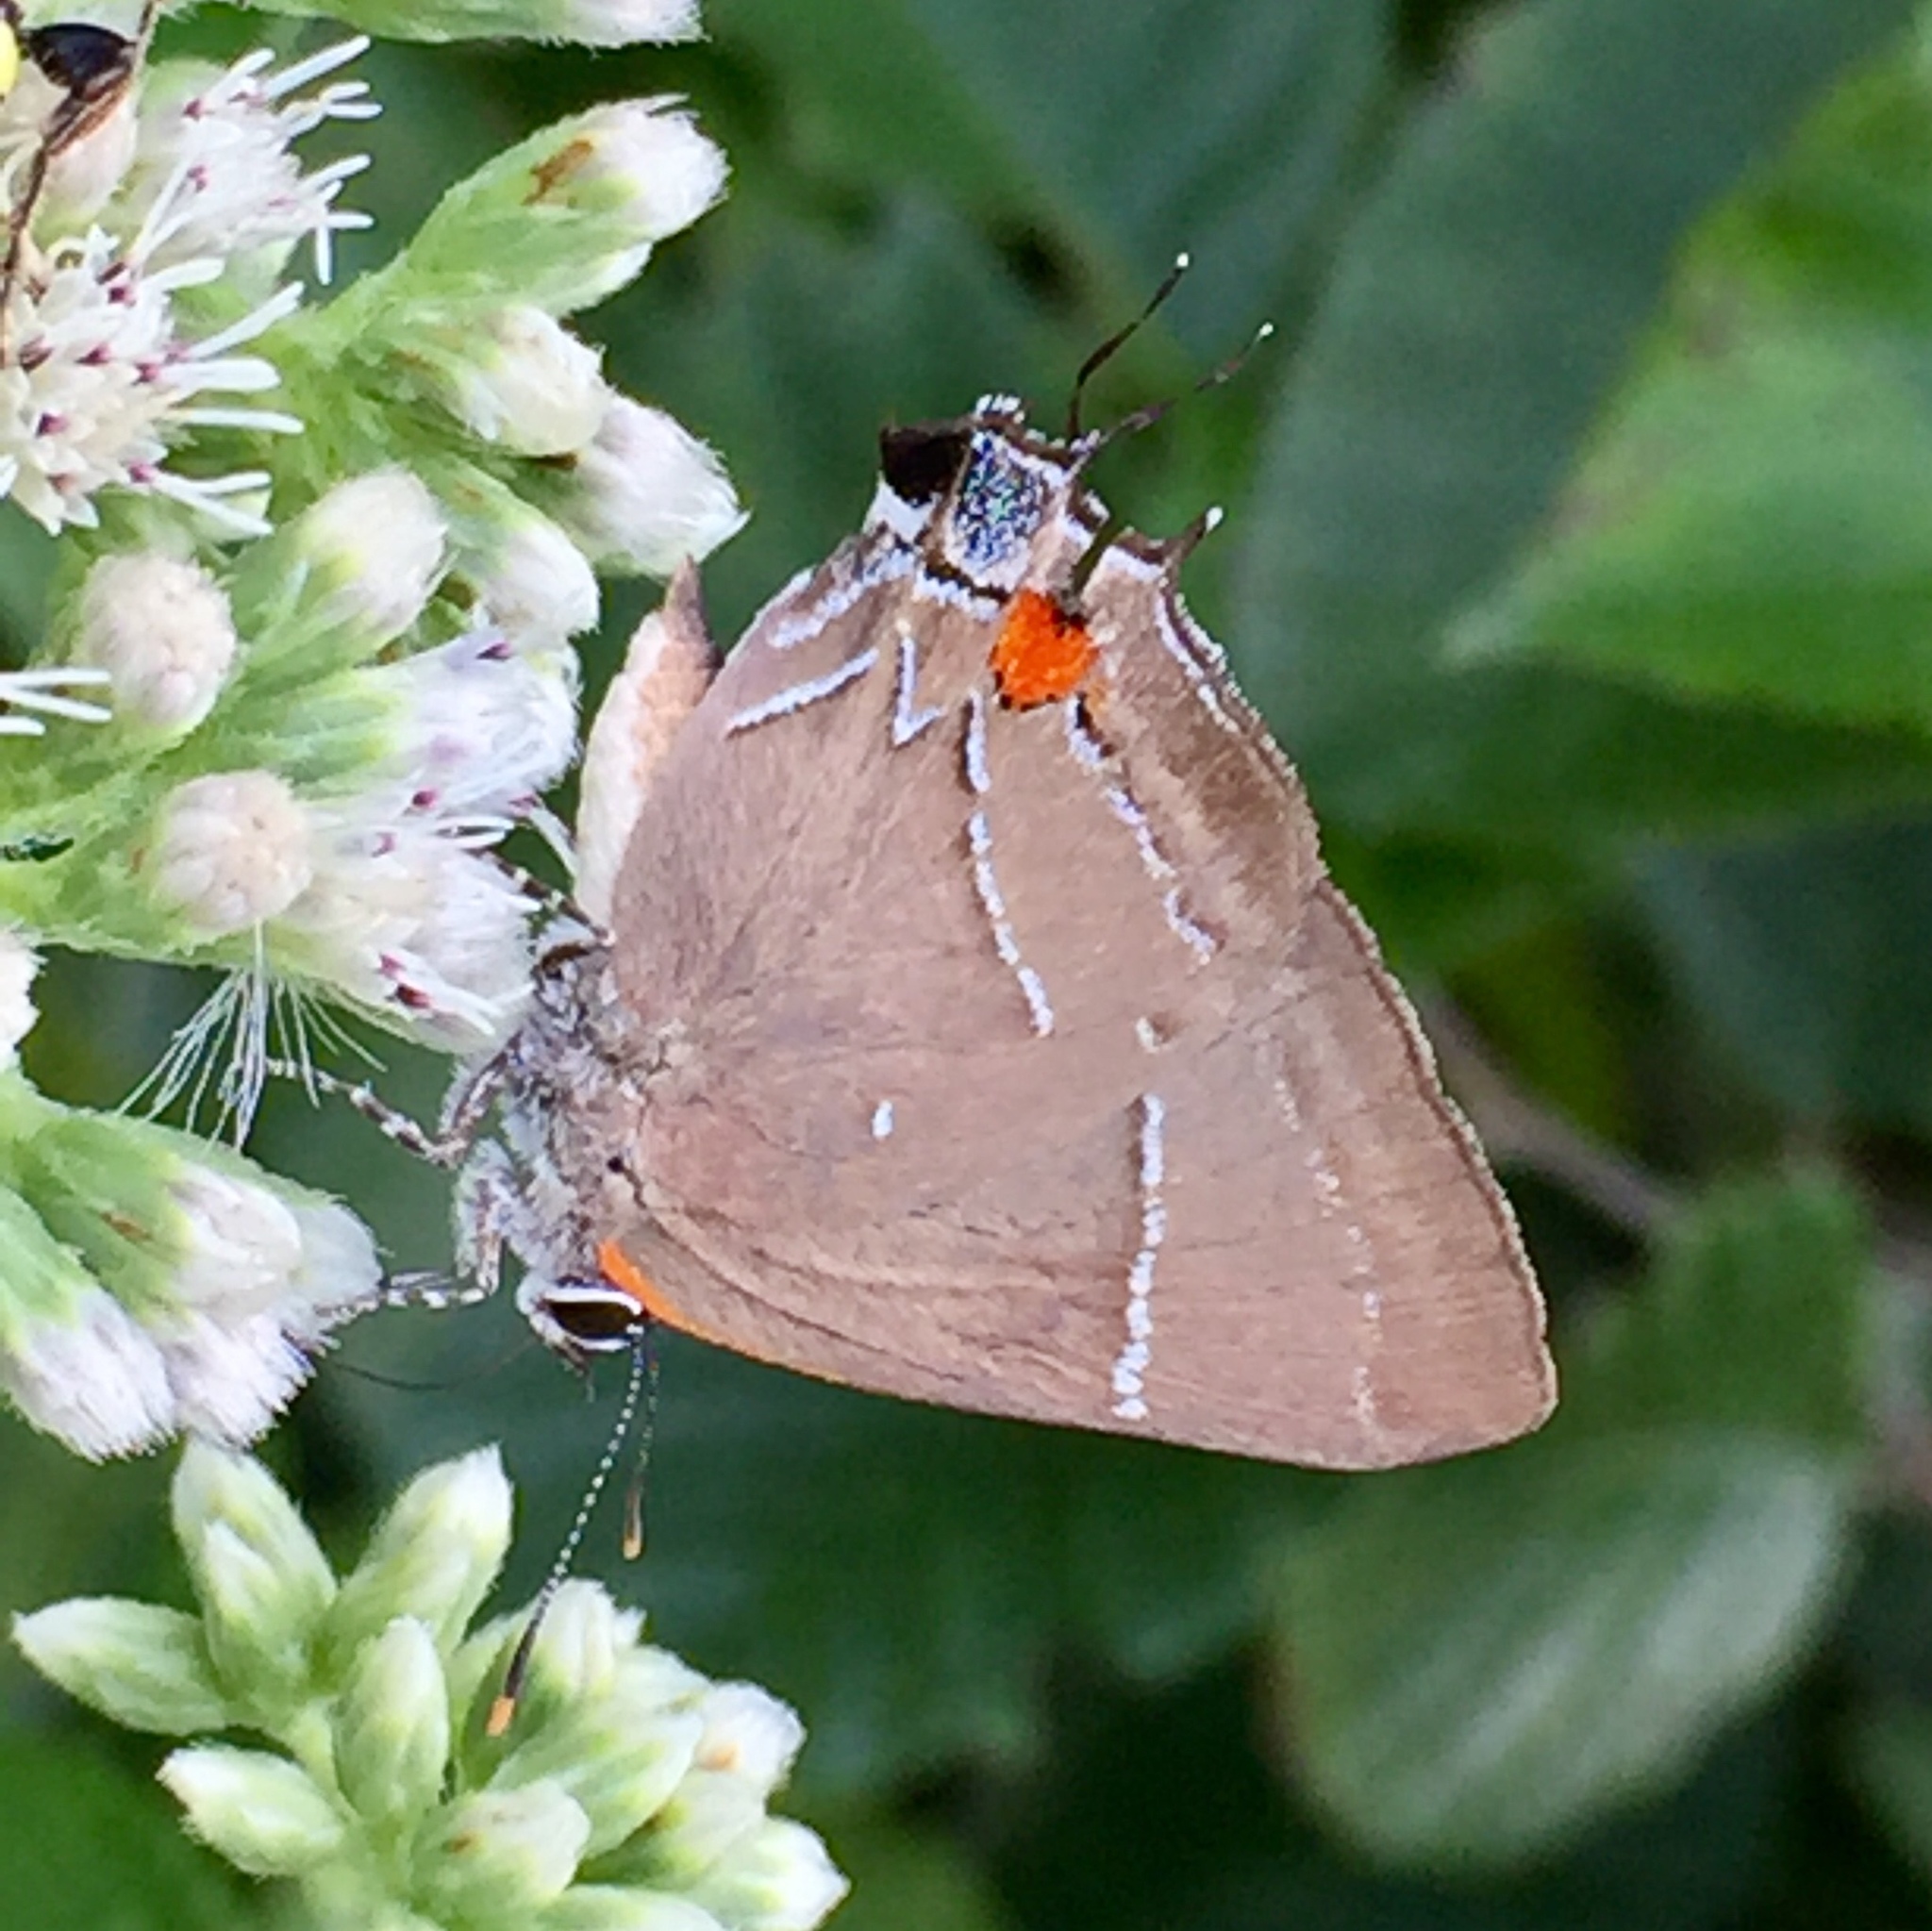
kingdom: Animalia
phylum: Arthropoda
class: Insecta
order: Lepidoptera
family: Lycaenidae
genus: Parrhasius
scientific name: Parrhasius m-album
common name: White m hairstreak
